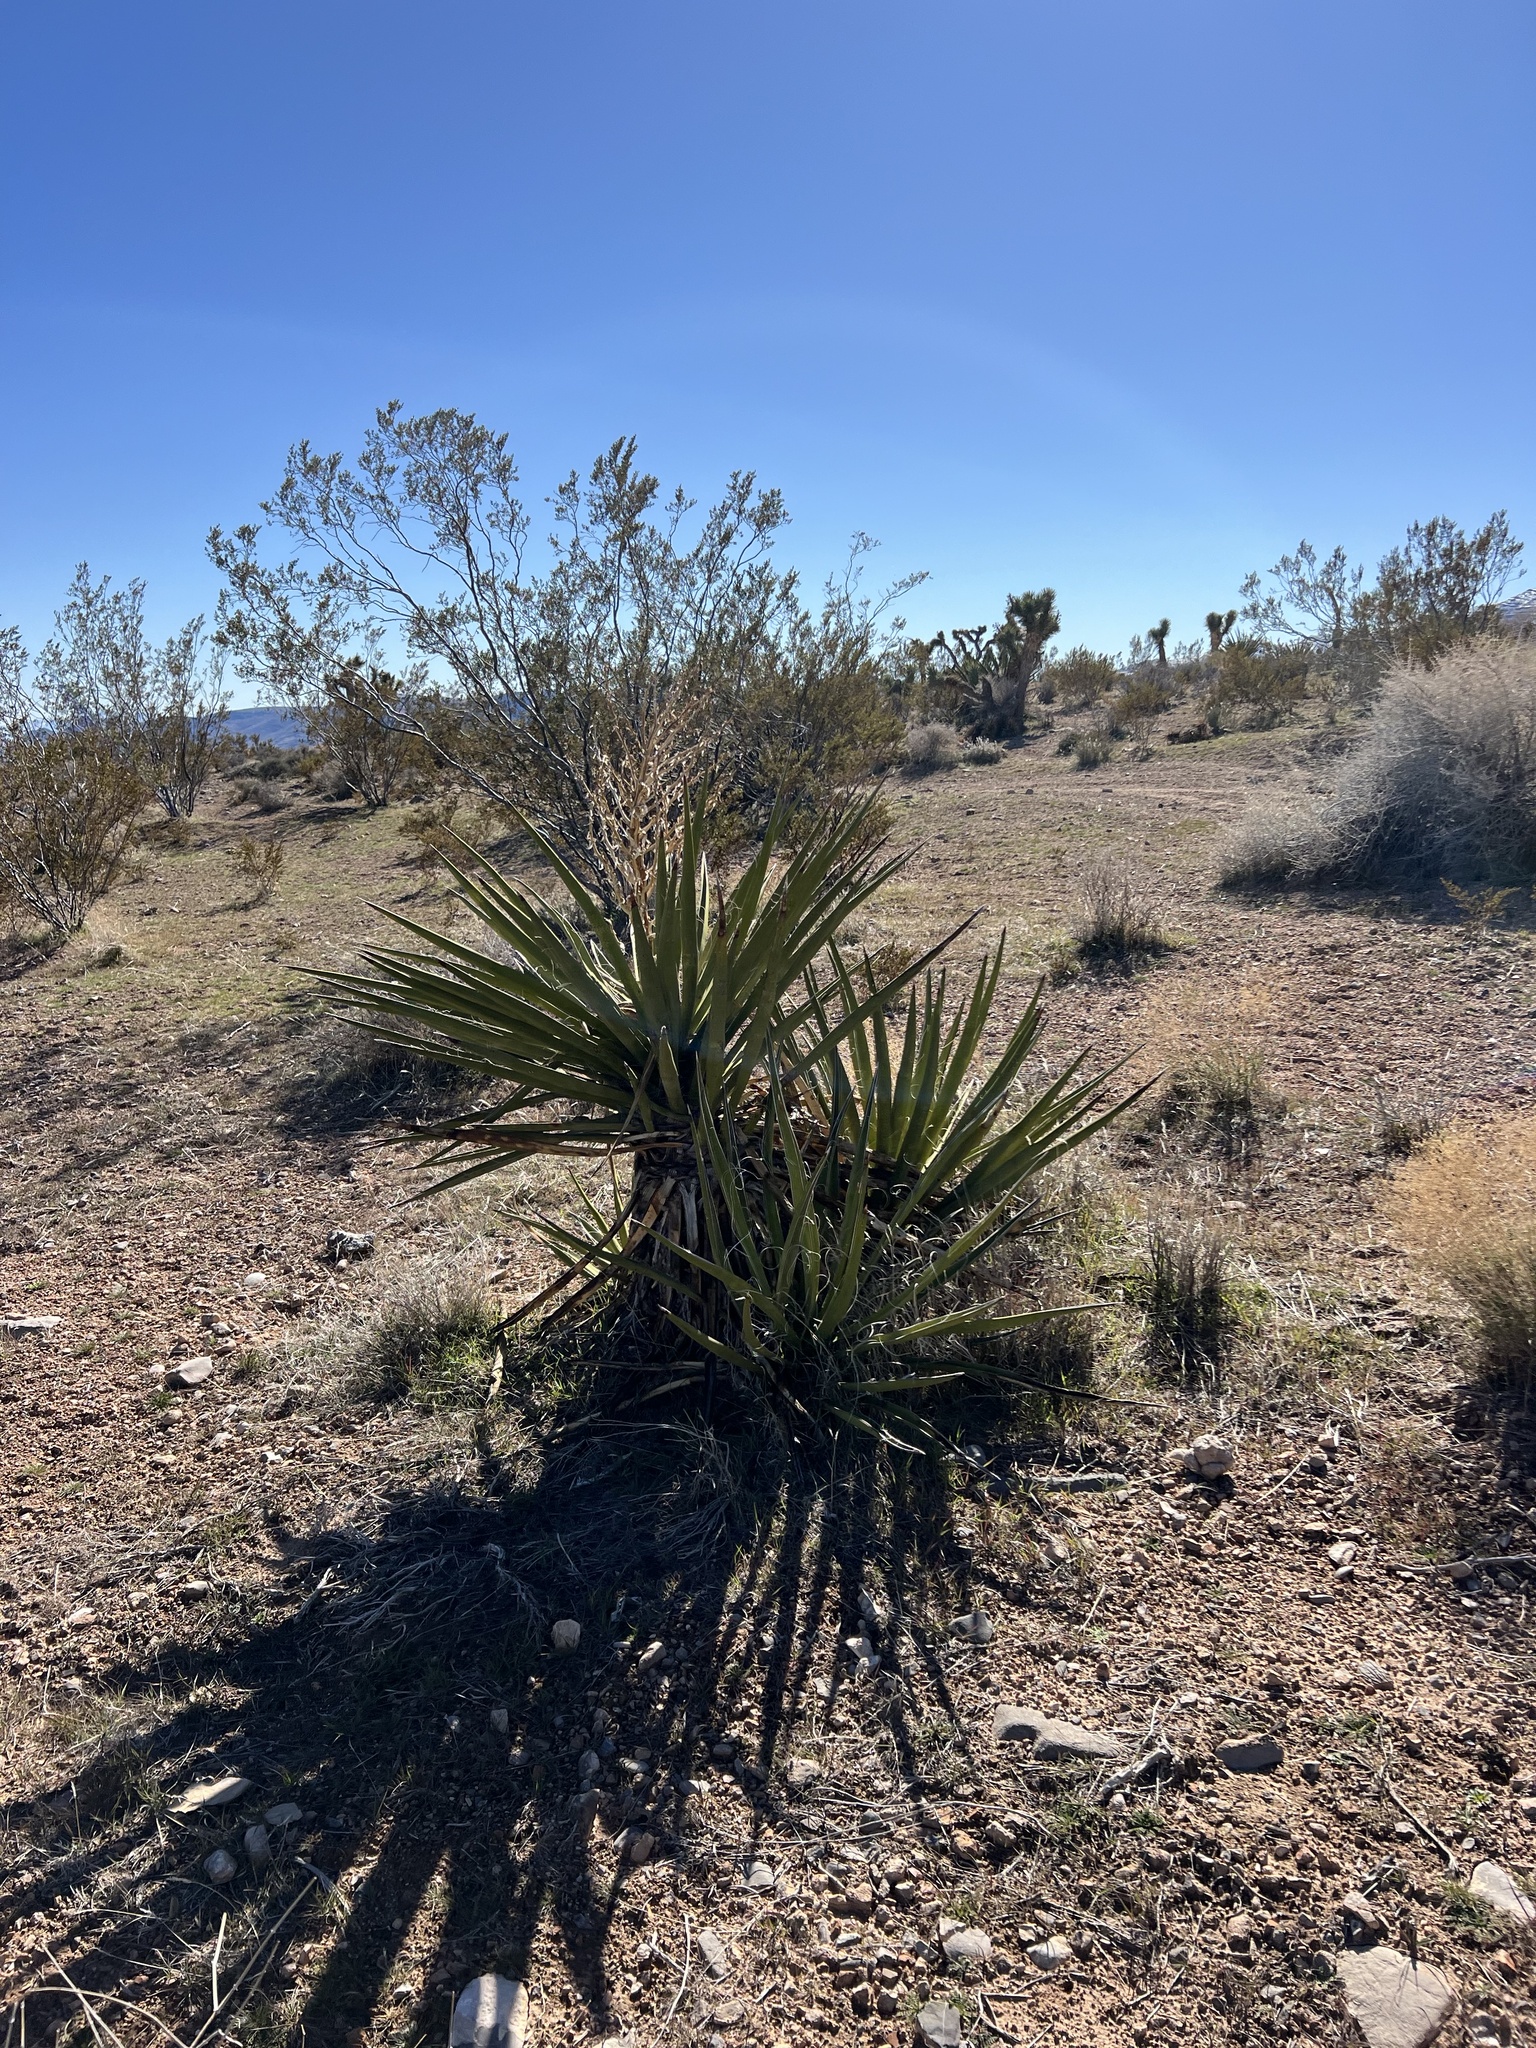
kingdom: Plantae
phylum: Tracheophyta
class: Liliopsida
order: Asparagales
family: Asparagaceae
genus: Yucca
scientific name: Yucca schidigera
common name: Mojave yucca
